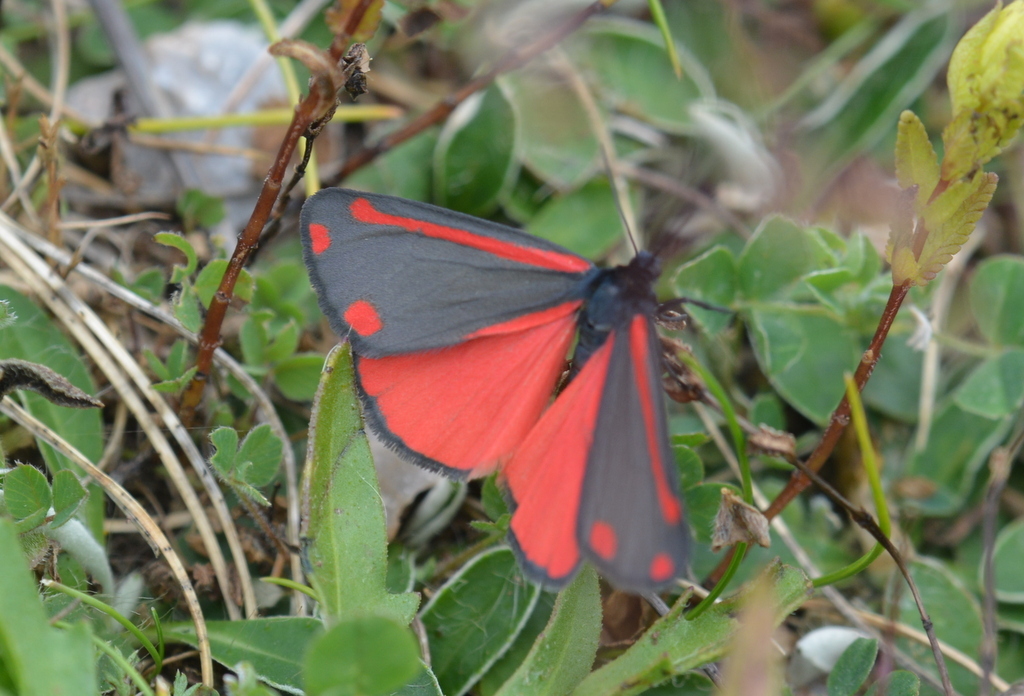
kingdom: Animalia
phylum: Arthropoda
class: Insecta
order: Lepidoptera
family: Erebidae
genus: Tyria
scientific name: Tyria jacobaeae
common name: Cinnabar
